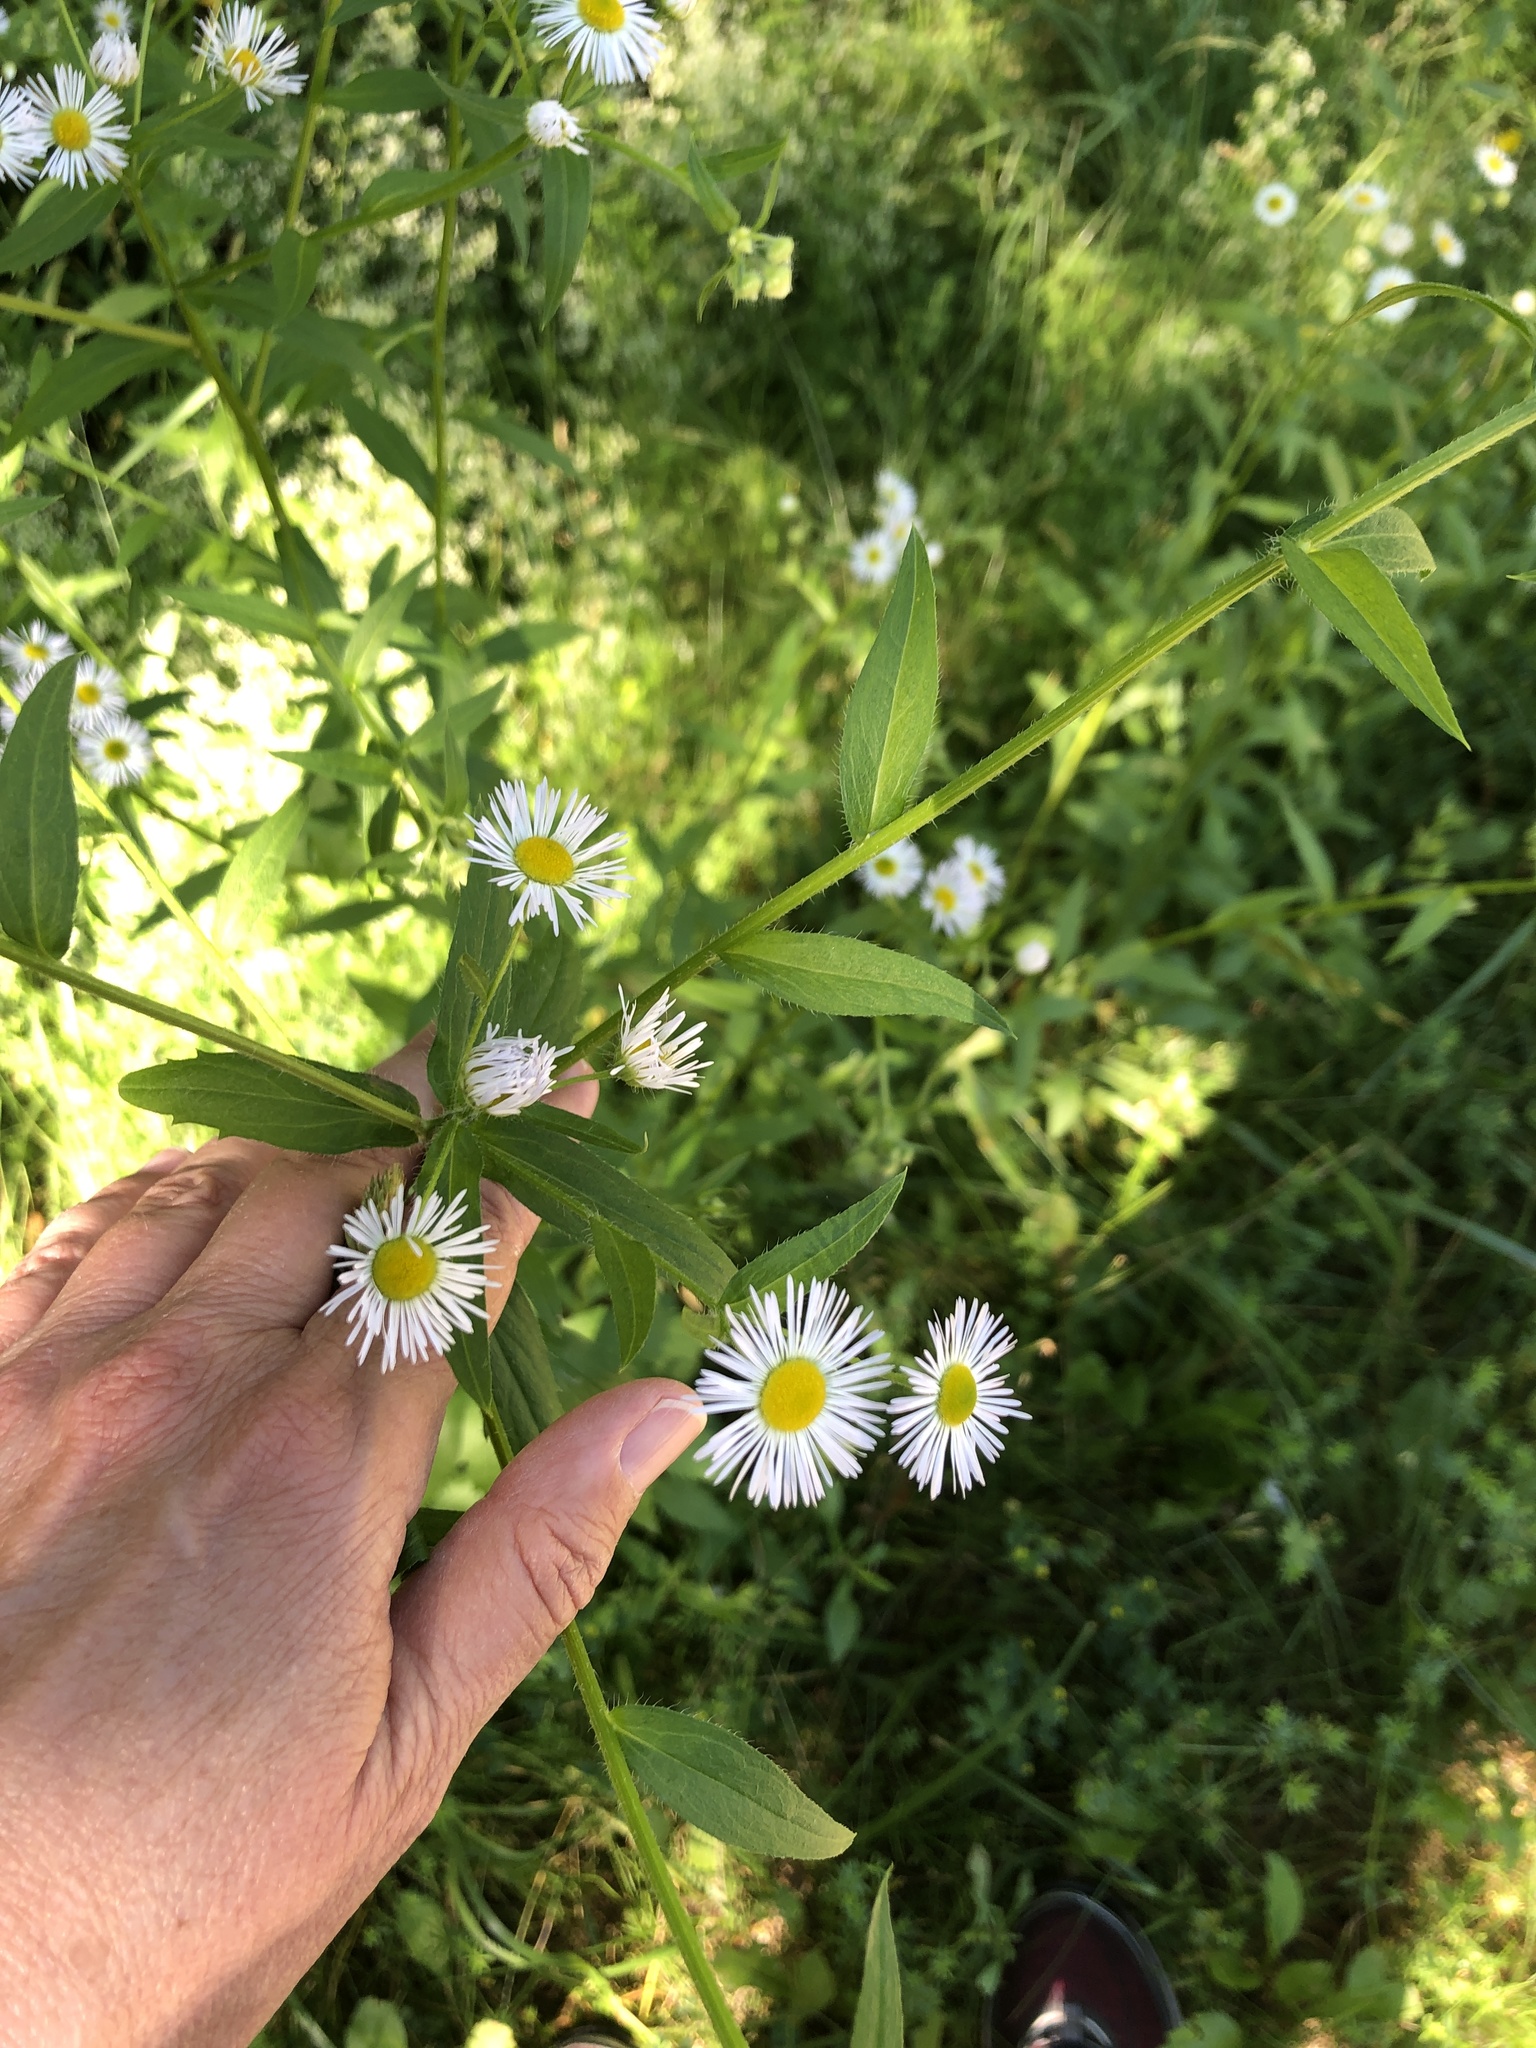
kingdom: Plantae
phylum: Tracheophyta
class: Magnoliopsida
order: Asterales
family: Asteraceae
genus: Erigeron
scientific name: Erigeron annuus
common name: Tall fleabane
